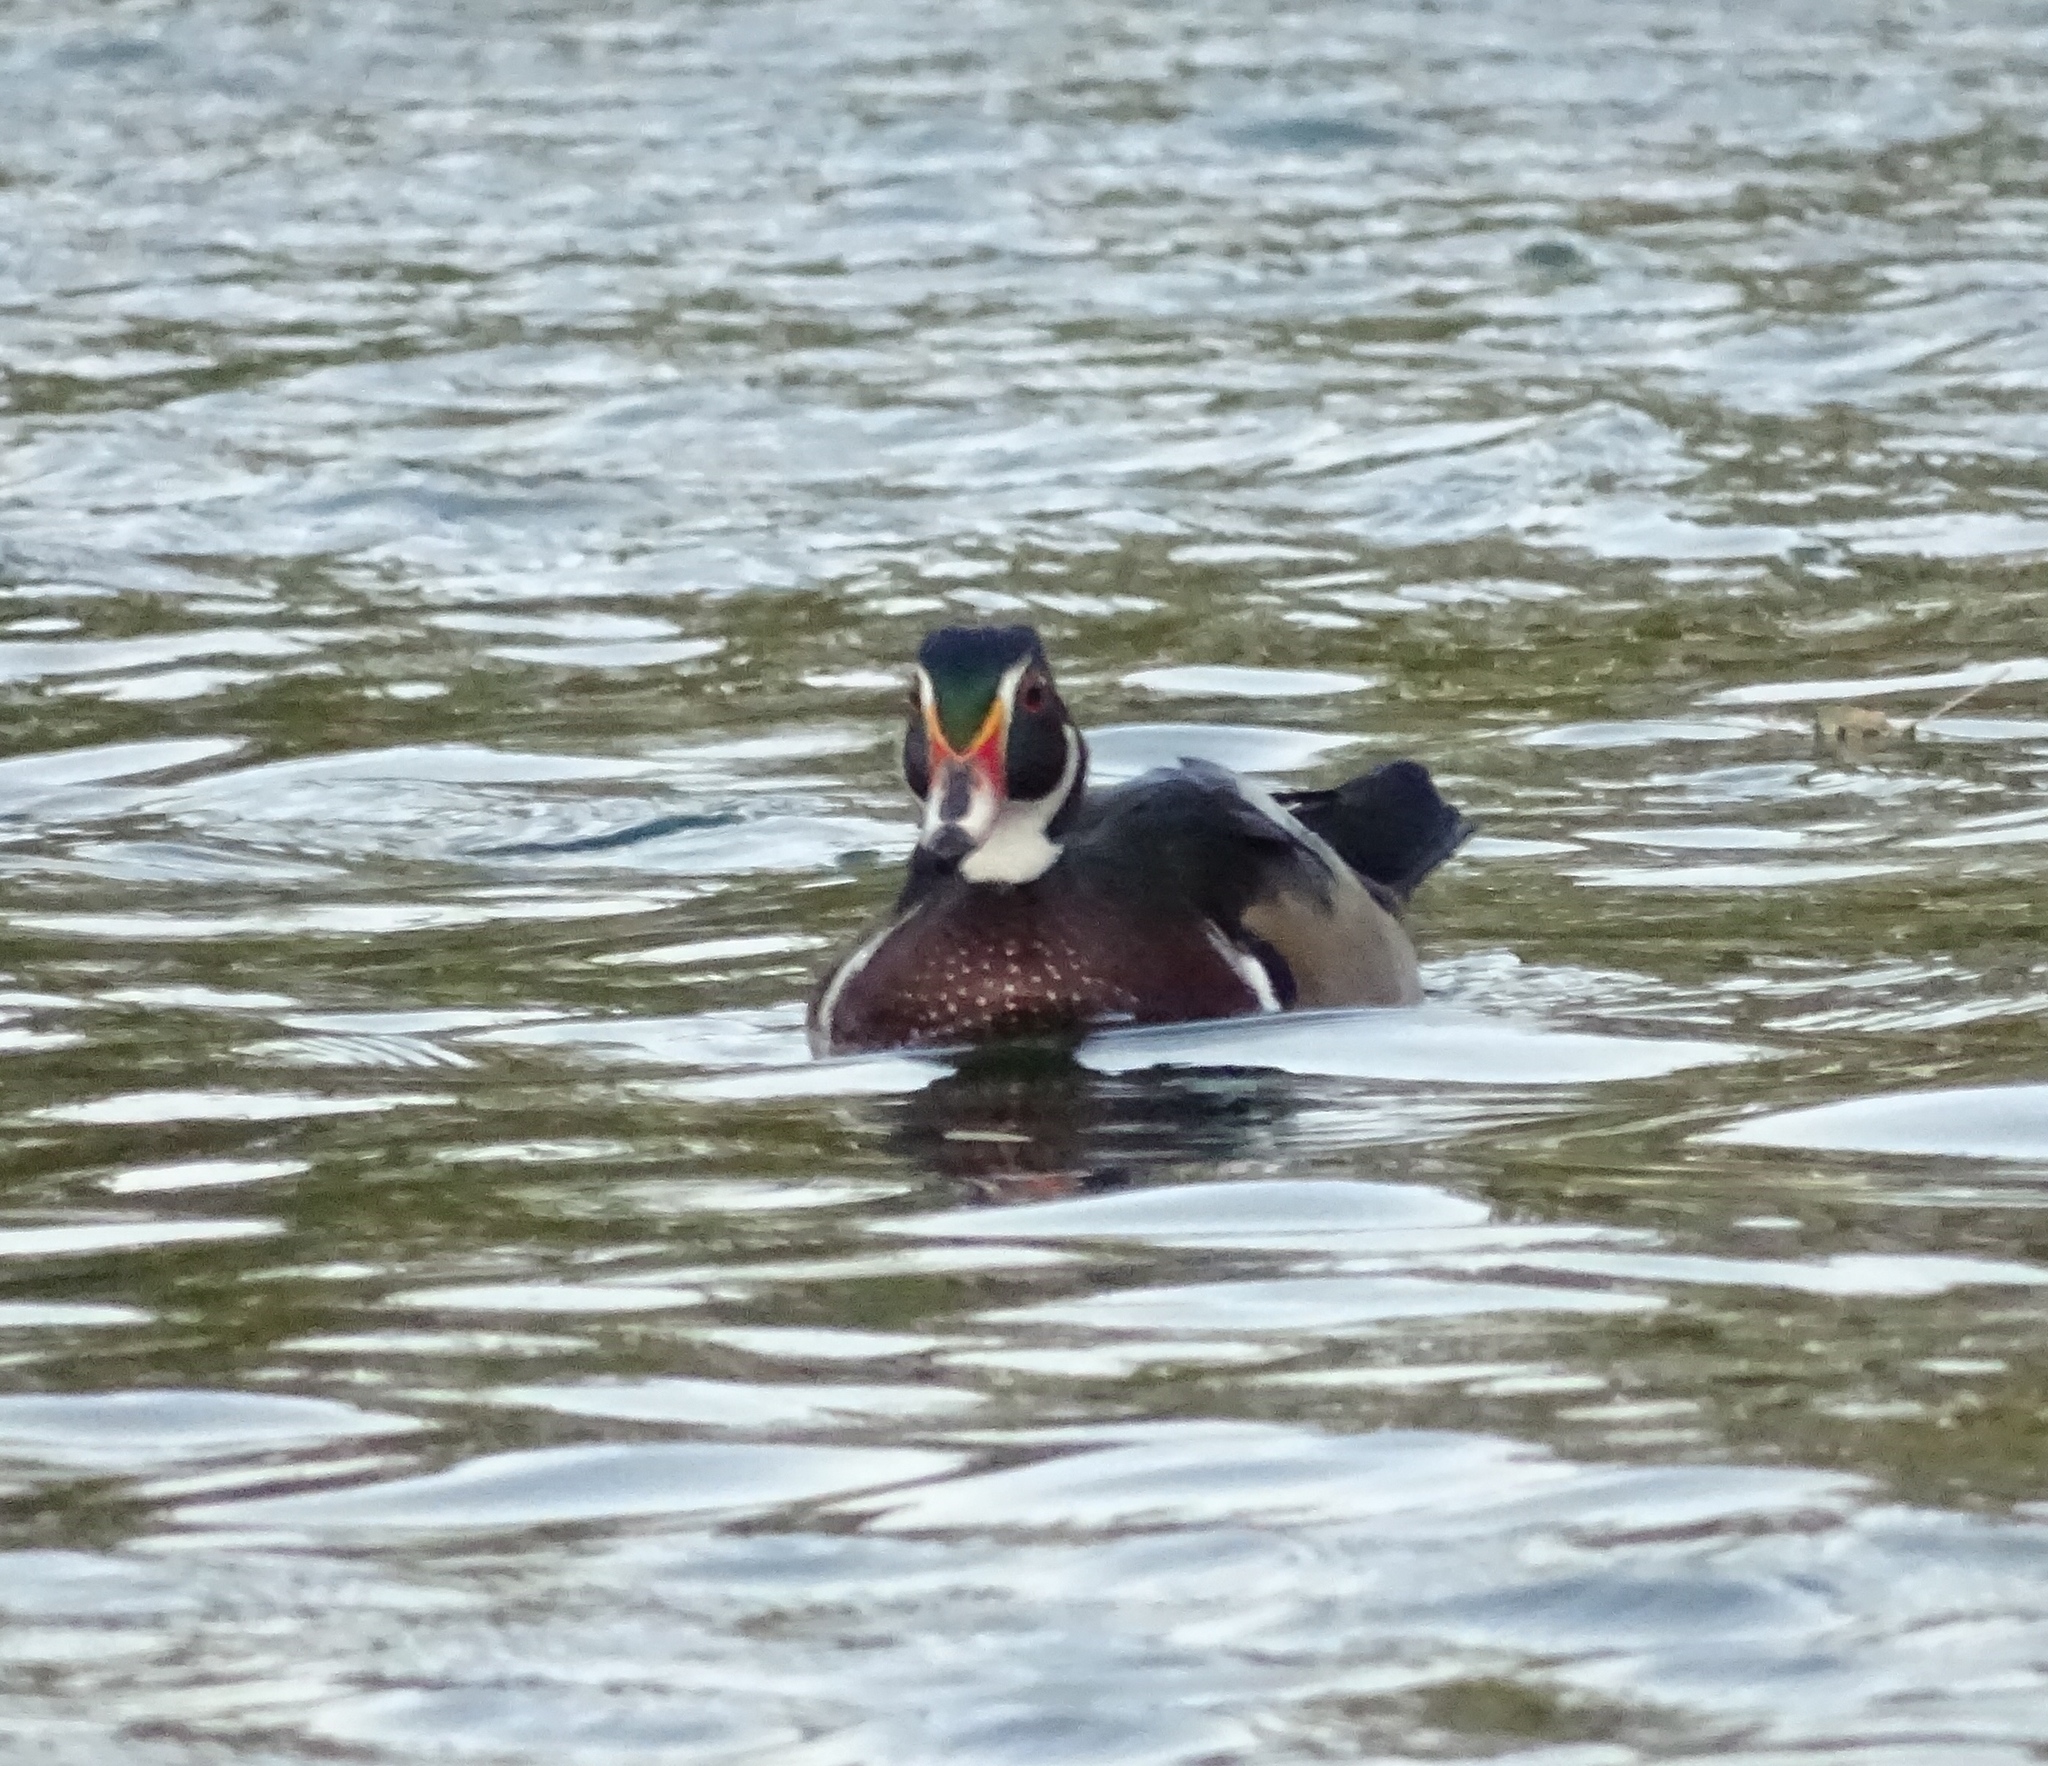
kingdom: Animalia
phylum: Chordata
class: Aves
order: Anseriformes
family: Anatidae
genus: Aix
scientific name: Aix sponsa
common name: Wood duck
